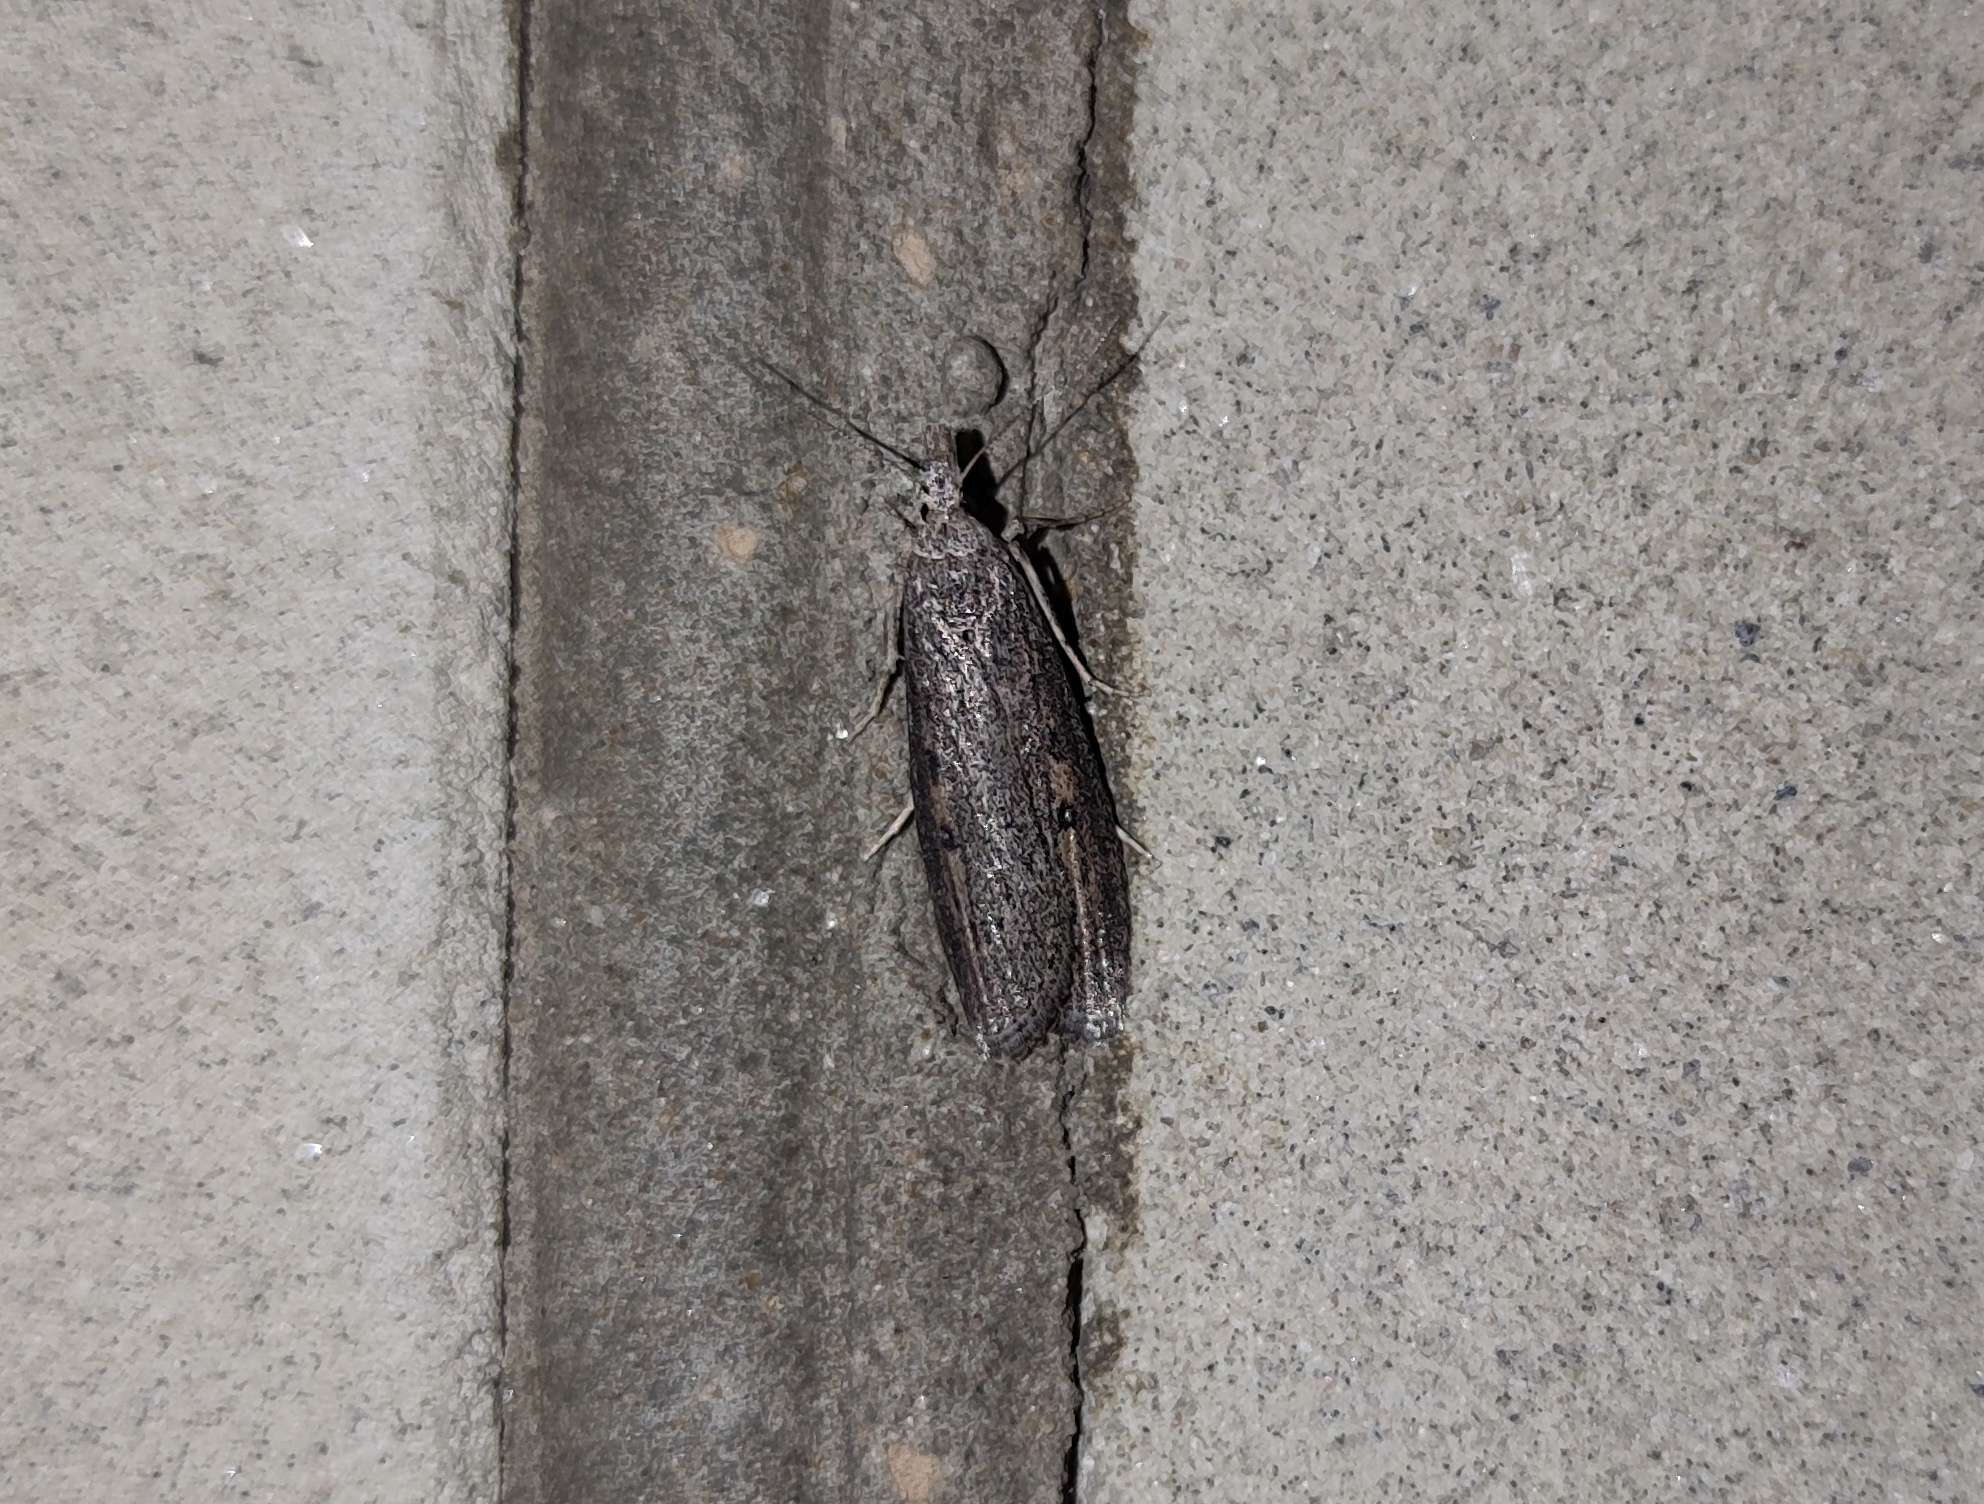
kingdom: Animalia
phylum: Arthropoda
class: Insecta
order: Lepidoptera
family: Pyralidae
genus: Aphomia
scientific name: Aphomia zelleri
